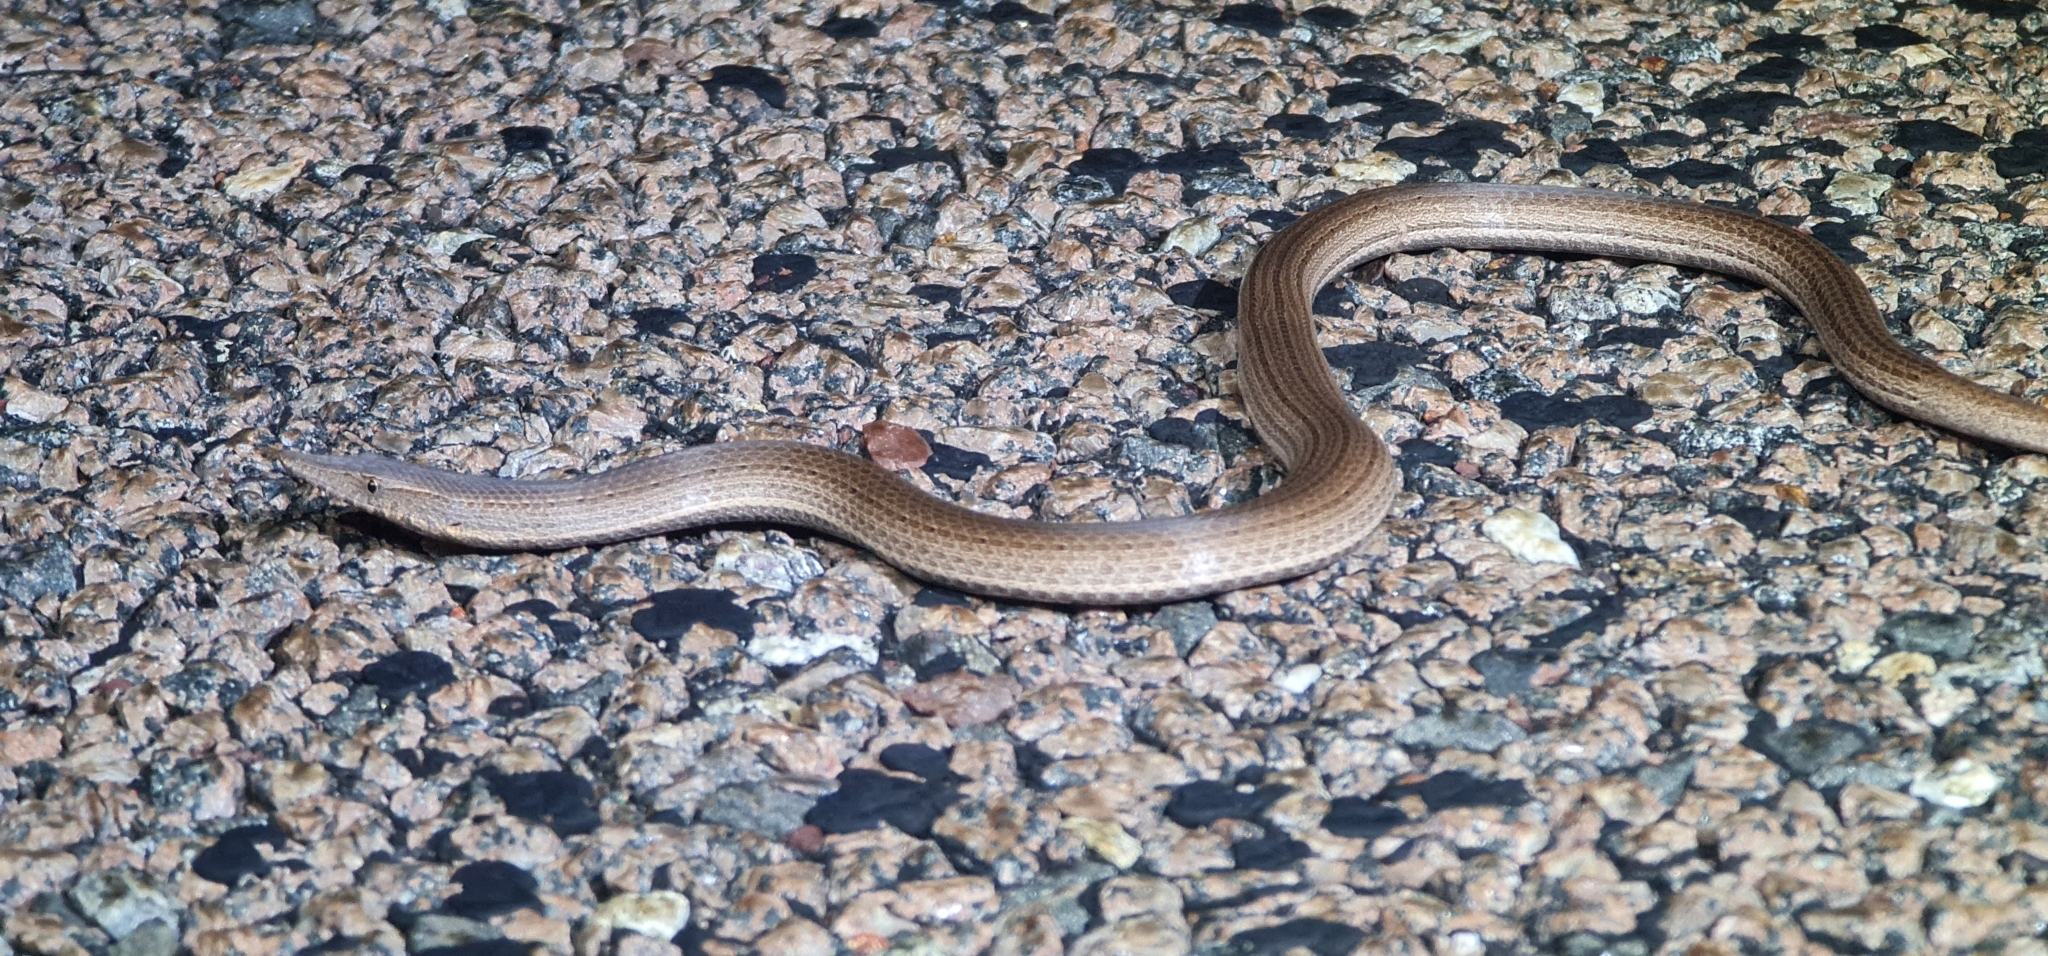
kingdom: Animalia
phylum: Chordata
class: Squamata
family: Pygopodidae
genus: Lialis
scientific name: Lialis burtonis
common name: Burton's legless lizard
